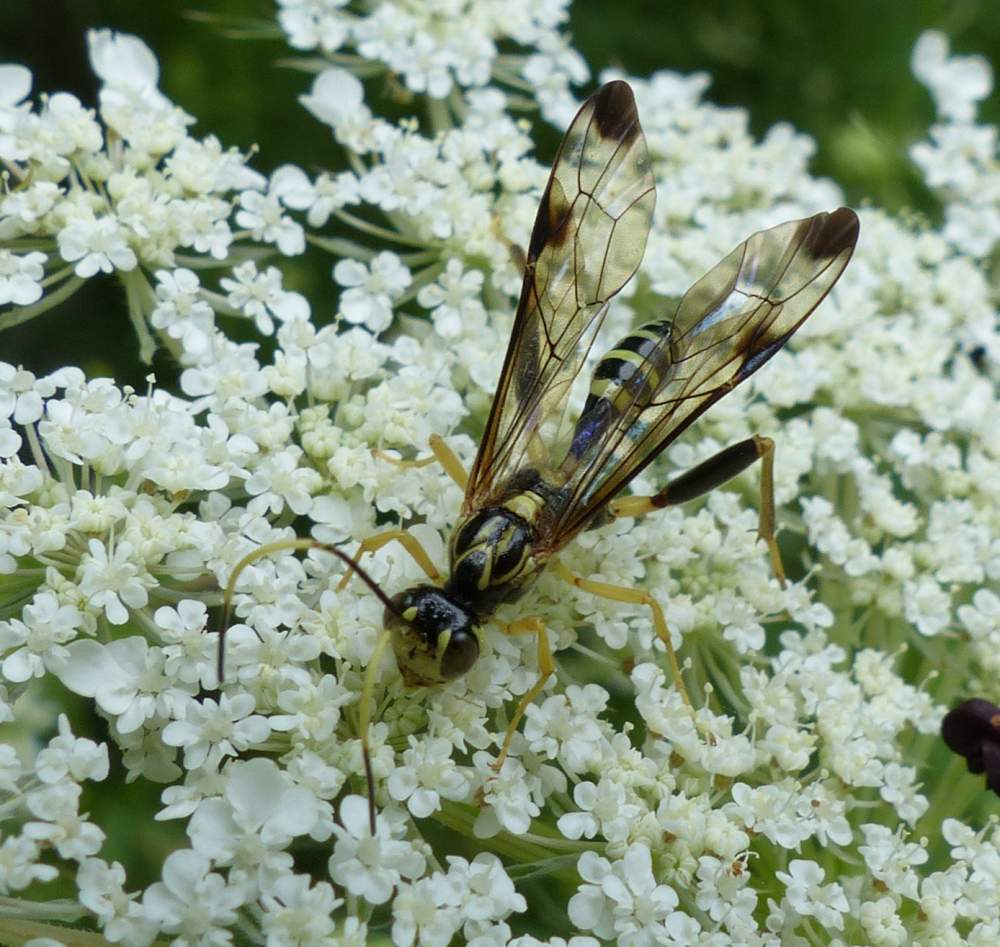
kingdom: Animalia
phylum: Arthropoda
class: Insecta
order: Hymenoptera
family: Ichneumonidae
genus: Spilopteron
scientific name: Spilopteron formosum
